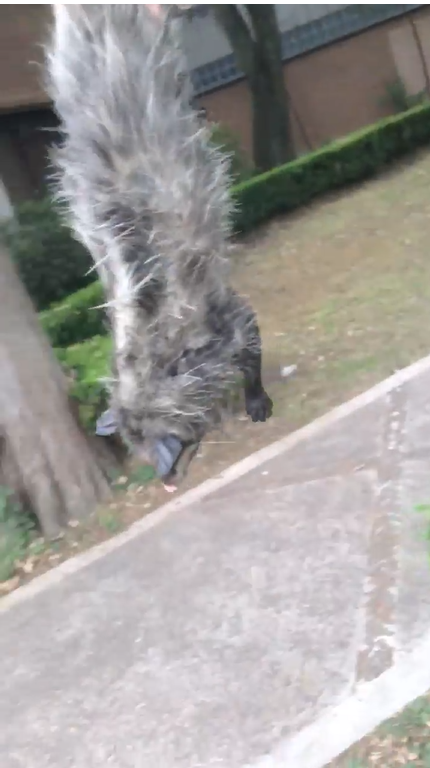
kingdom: Animalia
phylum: Chordata
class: Mammalia
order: Didelphimorphia
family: Didelphidae
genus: Didelphis
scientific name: Didelphis virginiana
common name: Virginia opossum
